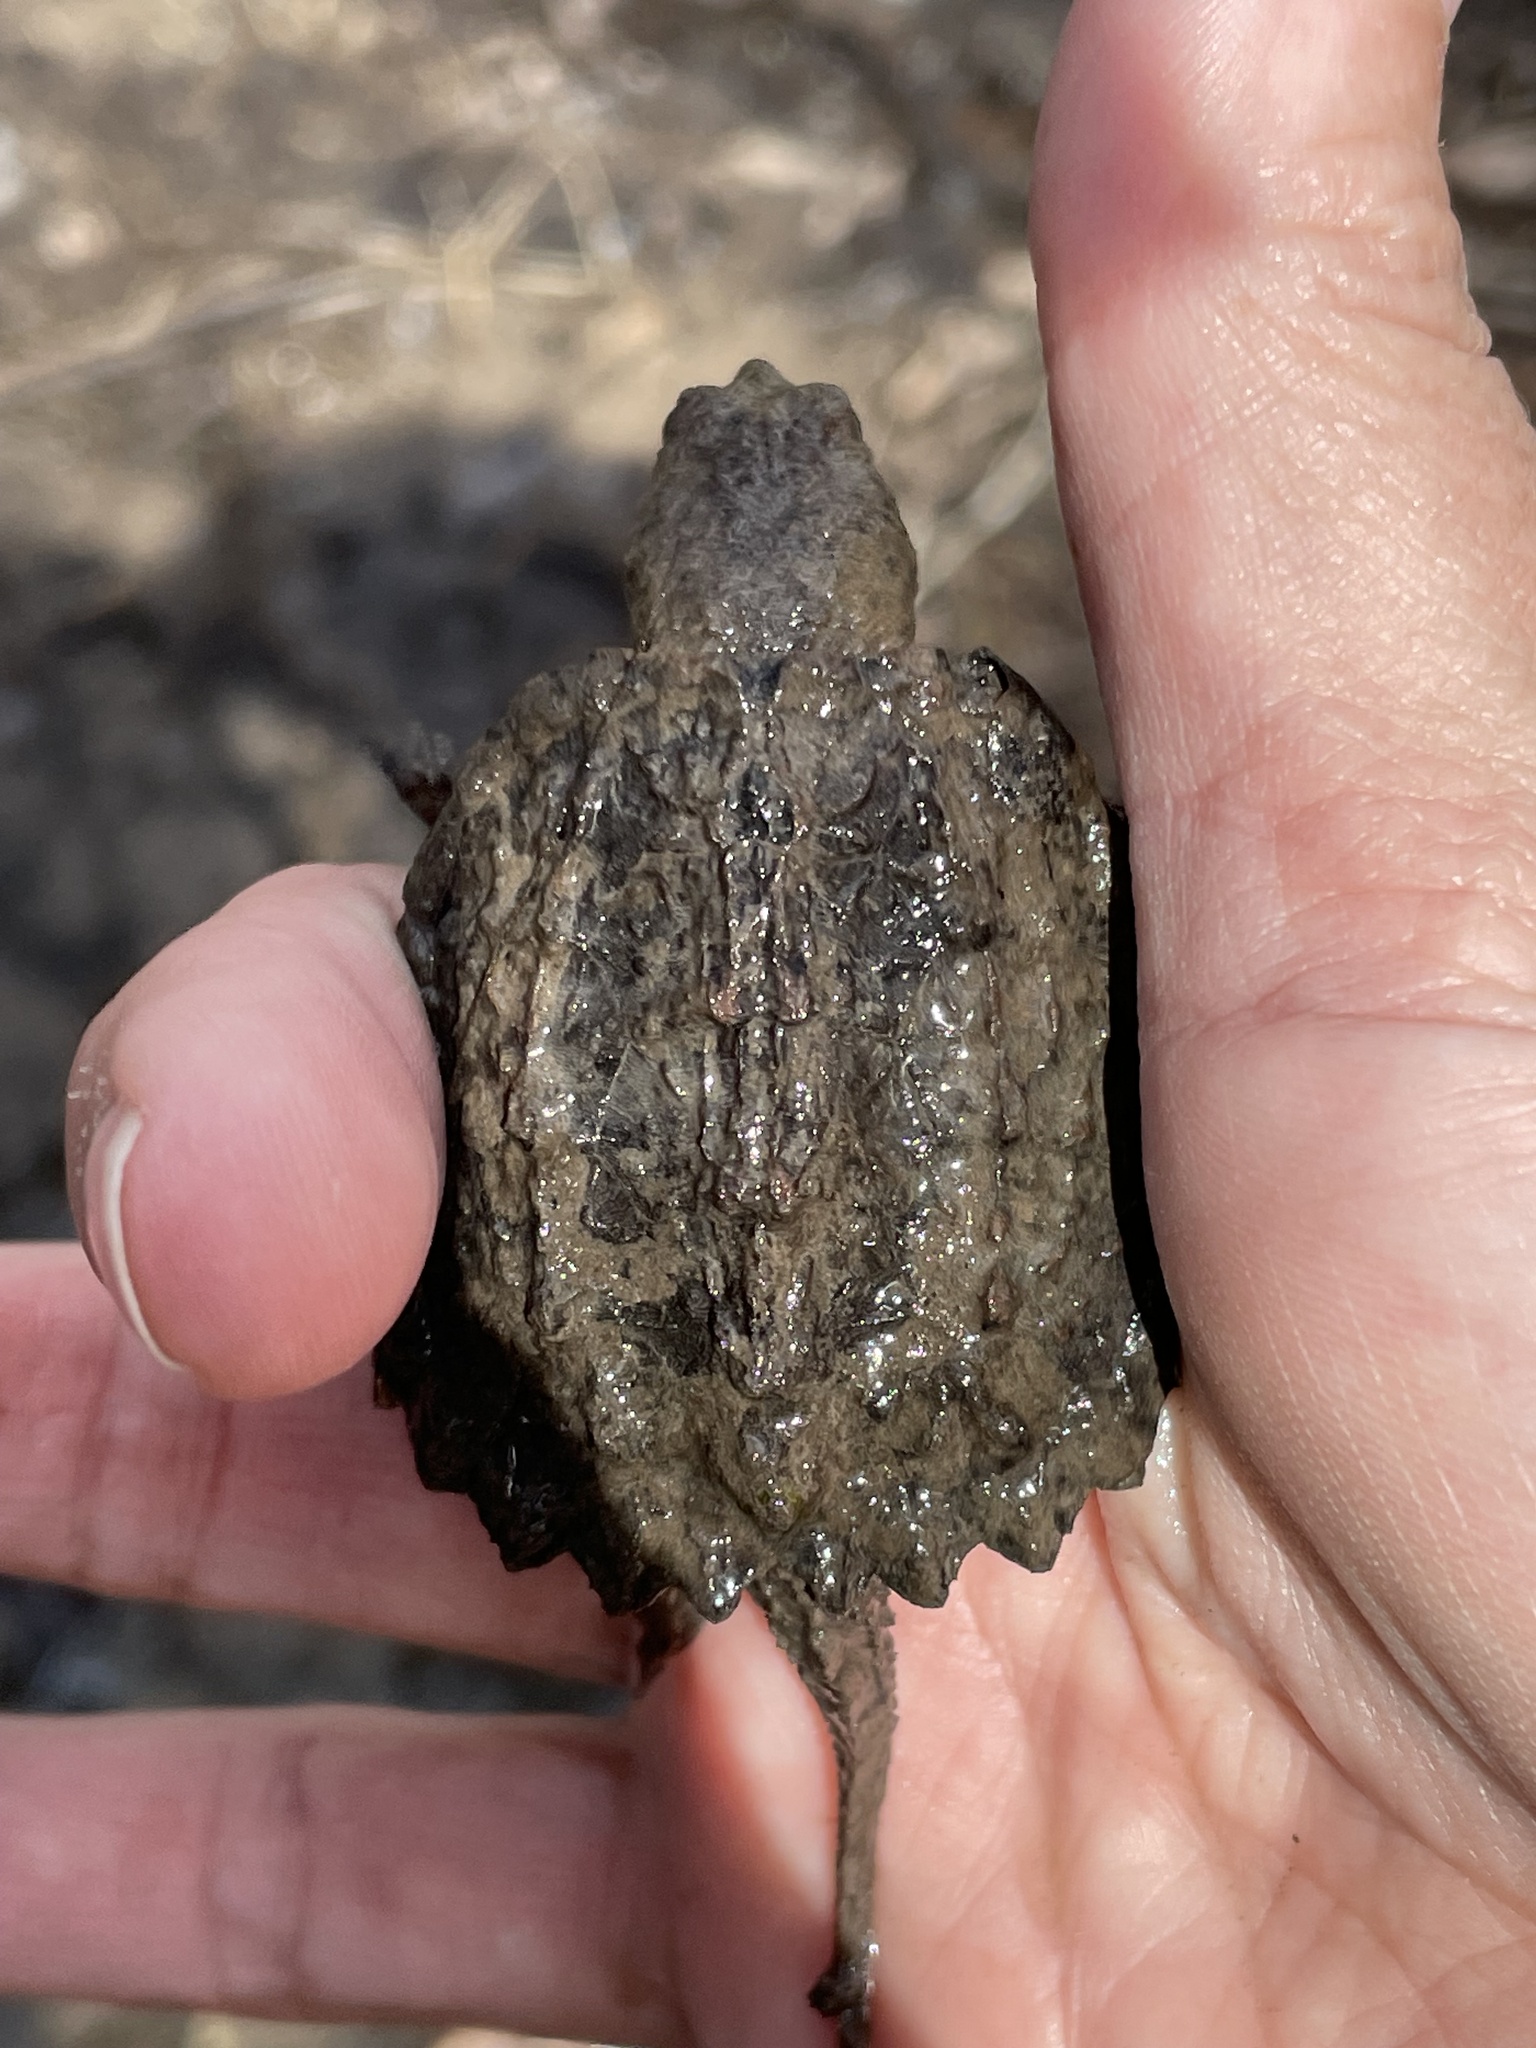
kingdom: Animalia
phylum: Chordata
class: Testudines
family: Chelydridae
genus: Chelydra
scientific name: Chelydra serpentina
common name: Common snapping turtle
